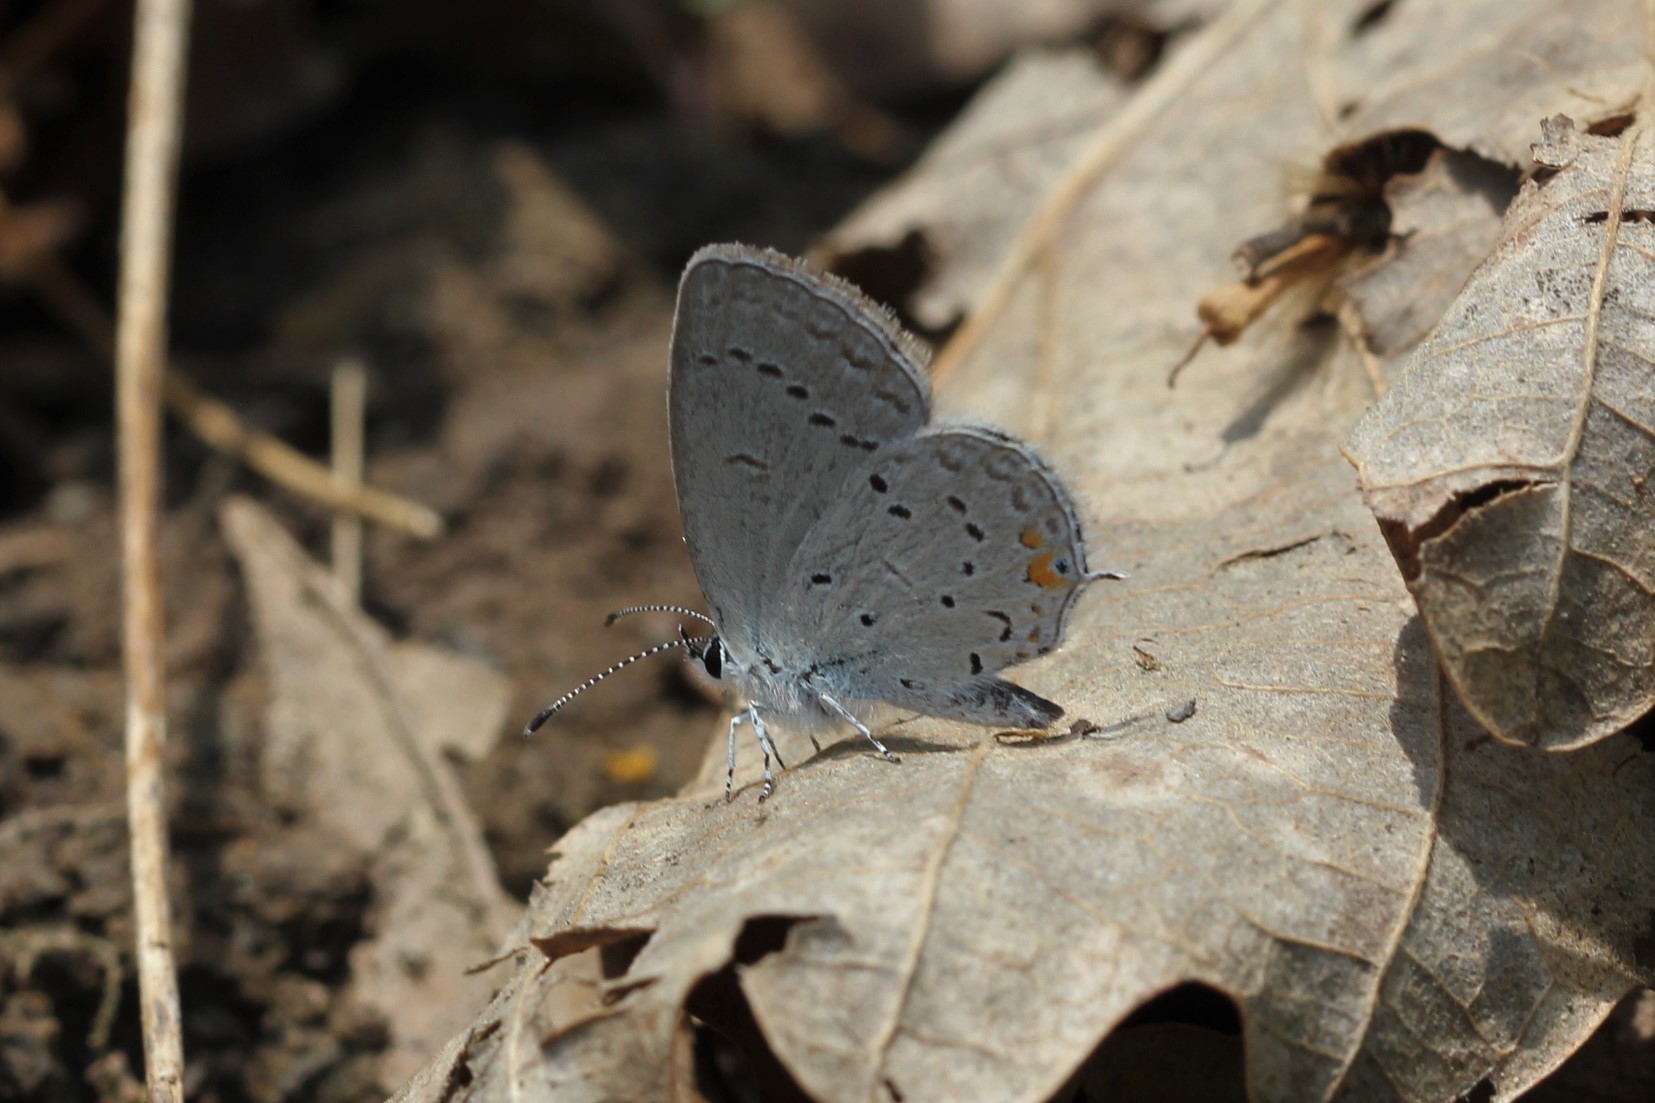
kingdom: Animalia
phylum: Arthropoda
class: Insecta
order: Lepidoptera
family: Lycaenidae
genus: Elkalyce
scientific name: Elkalyce comyntas
